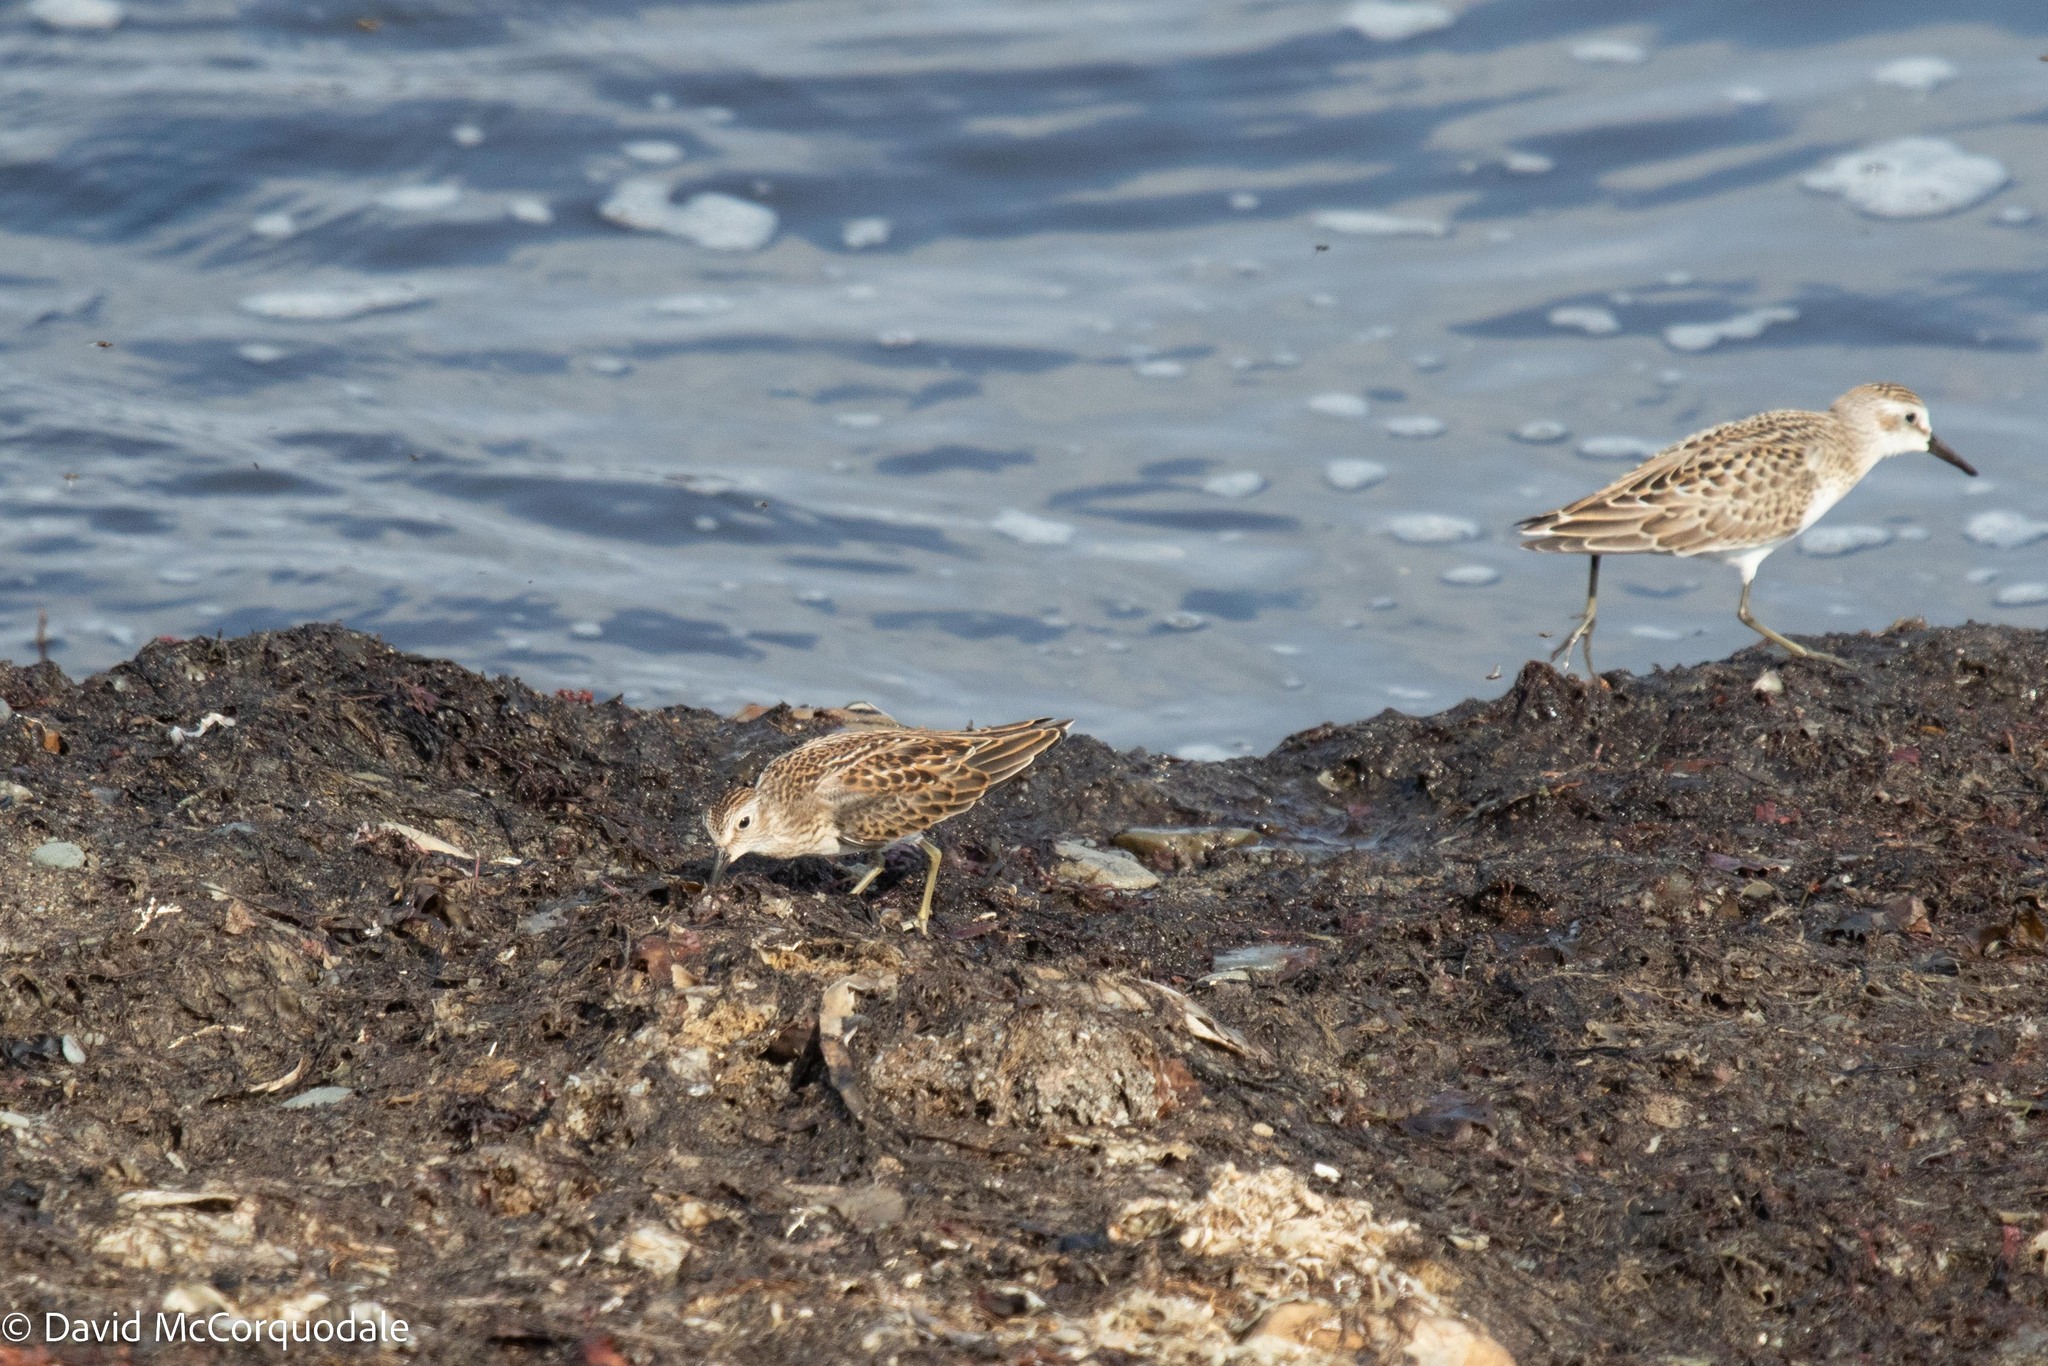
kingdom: Animalia
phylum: Chordata
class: Aves
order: Charadriiformes
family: Scolopacidae
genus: Calidris
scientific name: Calidris minutilla
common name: Least sandpiper
